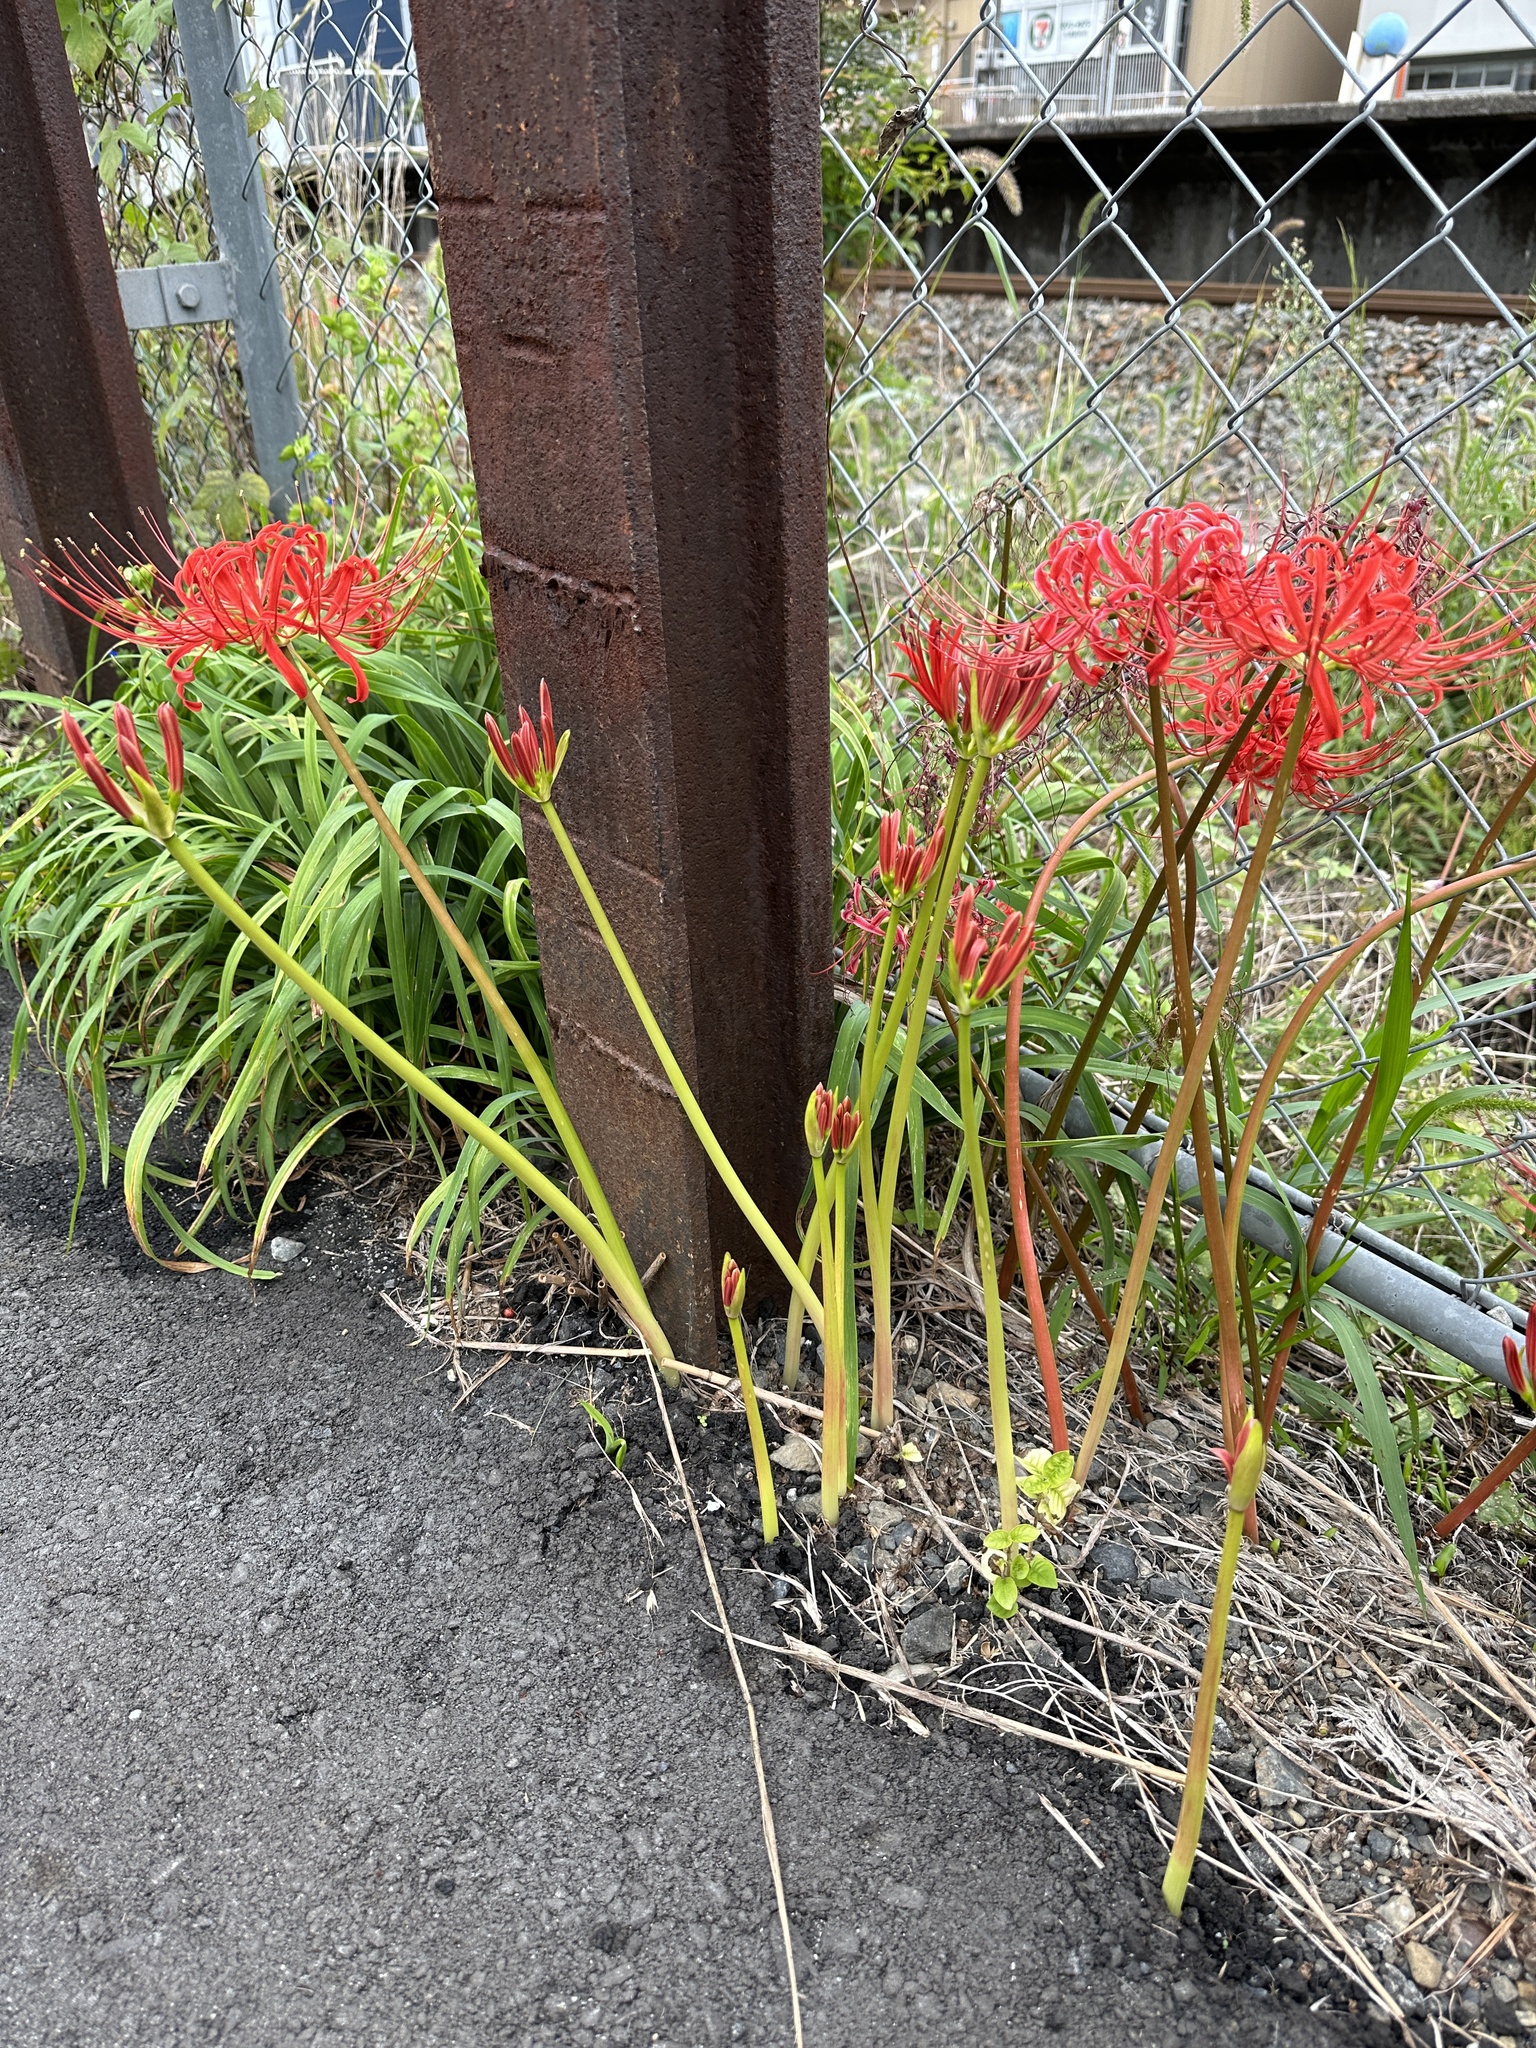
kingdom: Plantae
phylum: Tracheophyta
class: Liliopsida
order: Asparagales
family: Amaryllidaceae
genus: Lycoris
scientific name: Lycoris radiata
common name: Red spider lily
